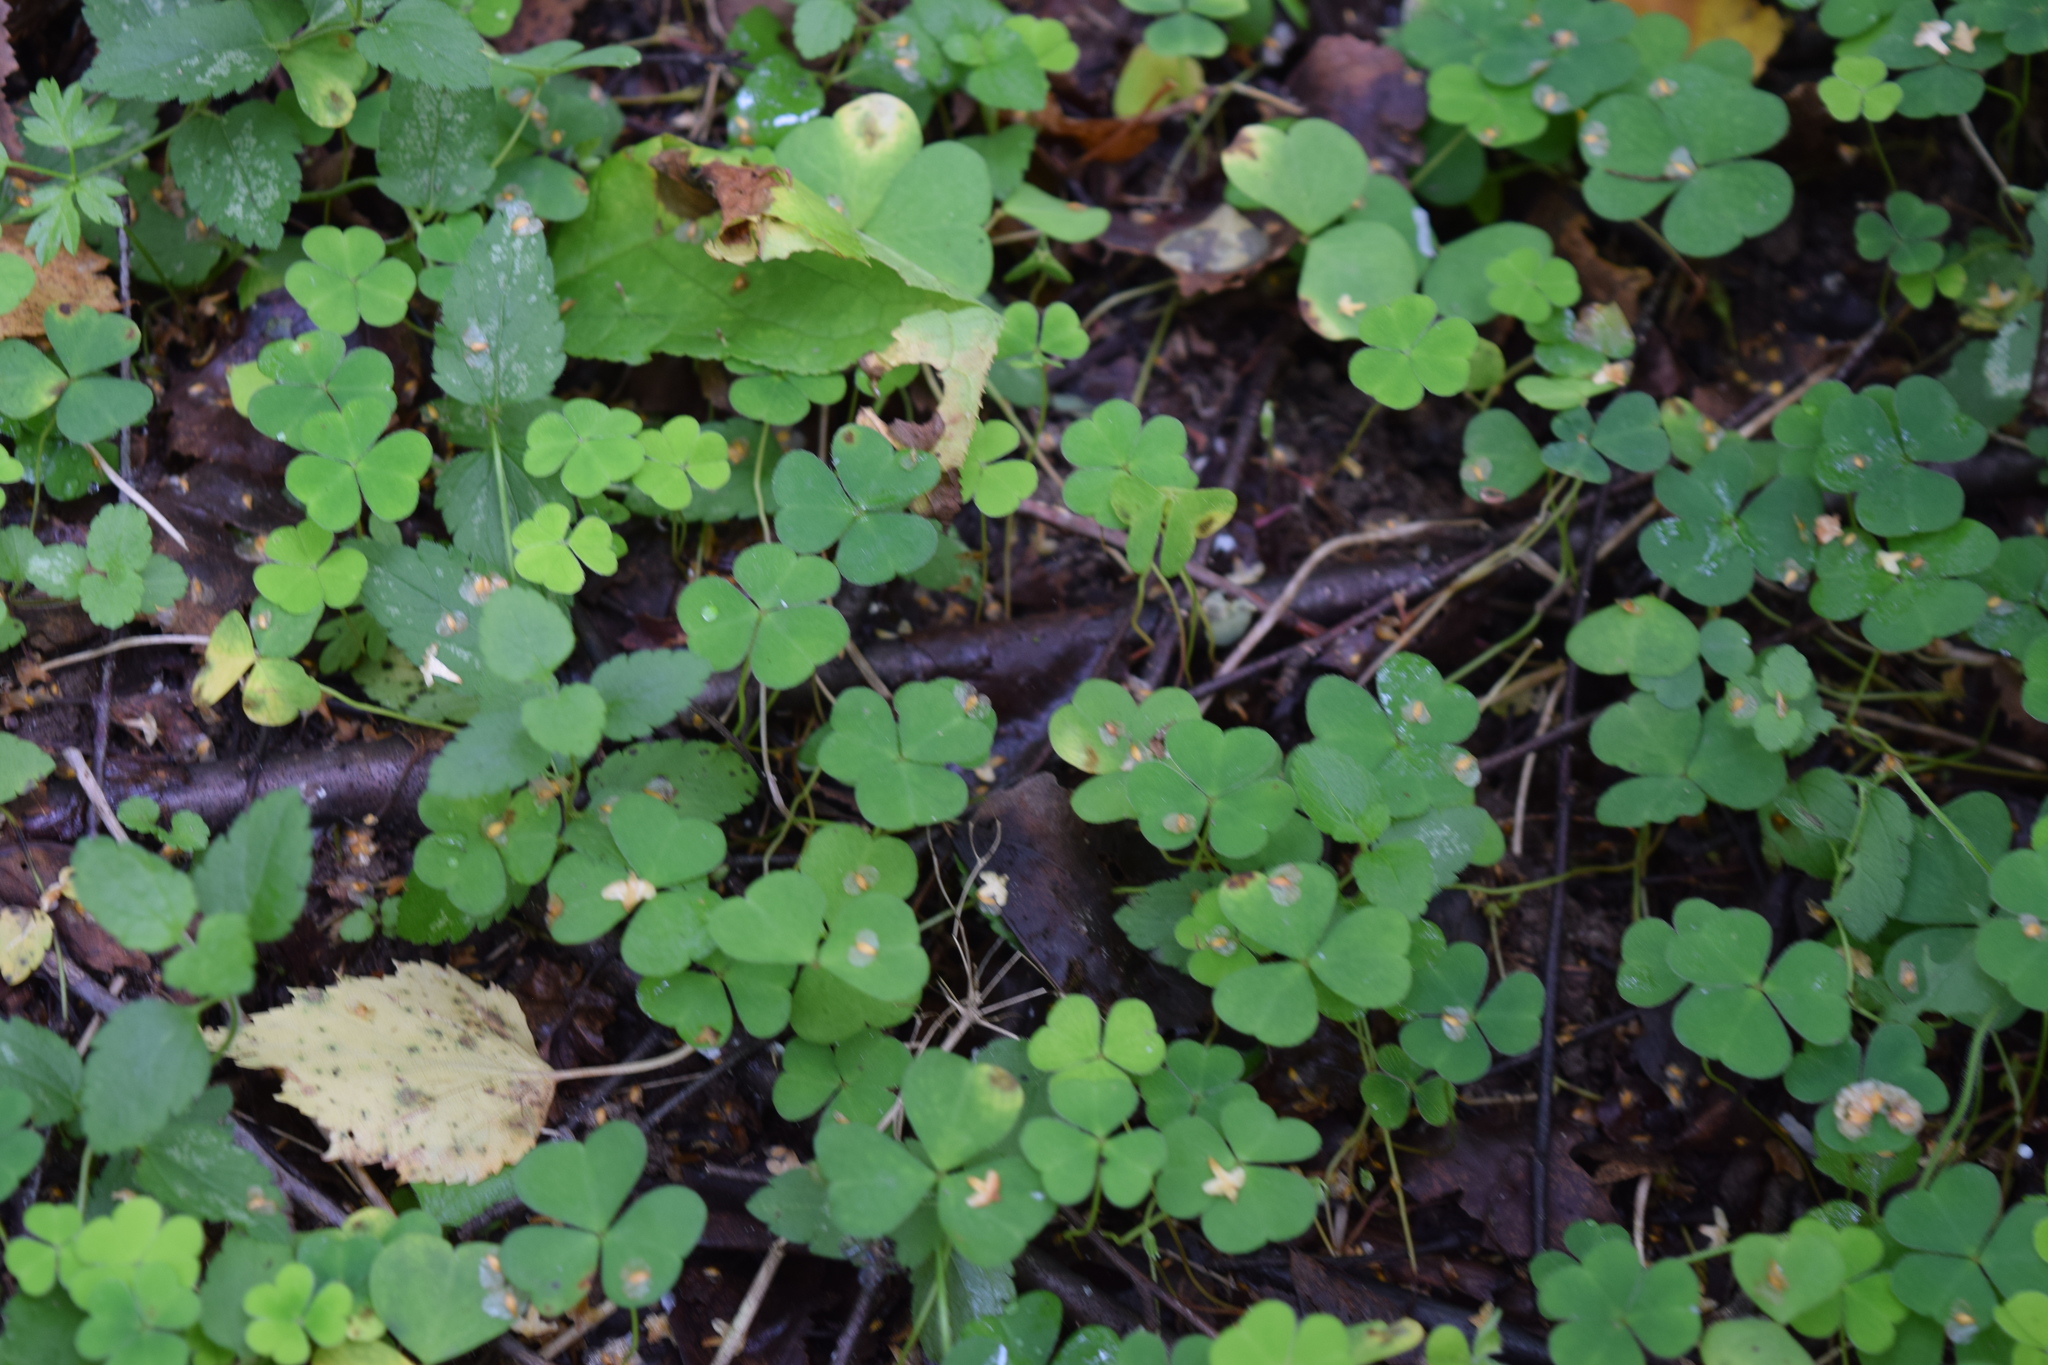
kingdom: Plantae
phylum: Tracheophyta
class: Magnoliopsida
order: Oxalidales
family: Oxalidaceae
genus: Oxalis
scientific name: Oxalis acetosella
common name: Wood-sorrel
